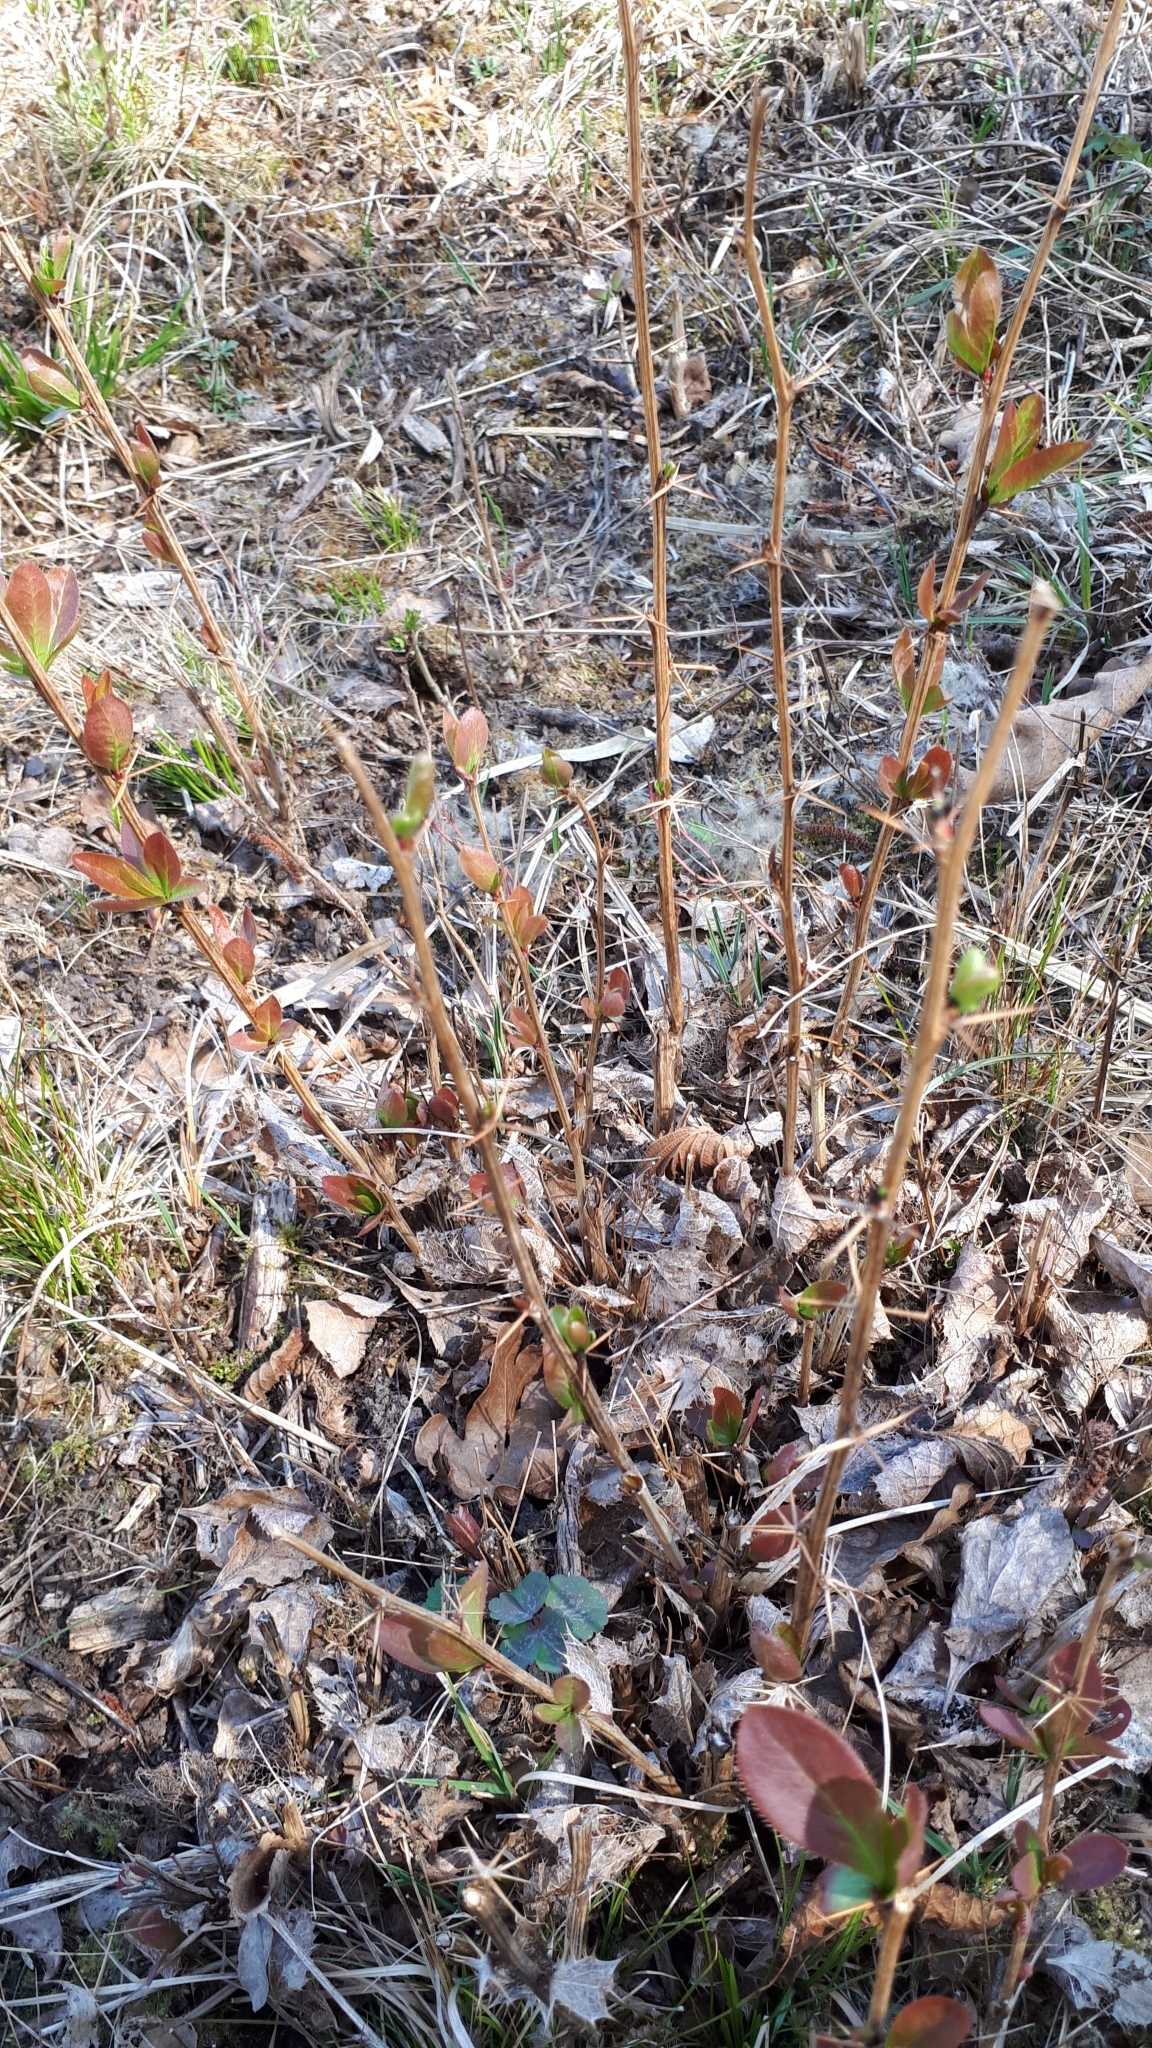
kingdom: Plantae
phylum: Tracheophyta
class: Magnoliopsida
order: Ranunculales
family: Berberidaceae
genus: Berberis
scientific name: Berberis vulgaris
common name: Barberry
